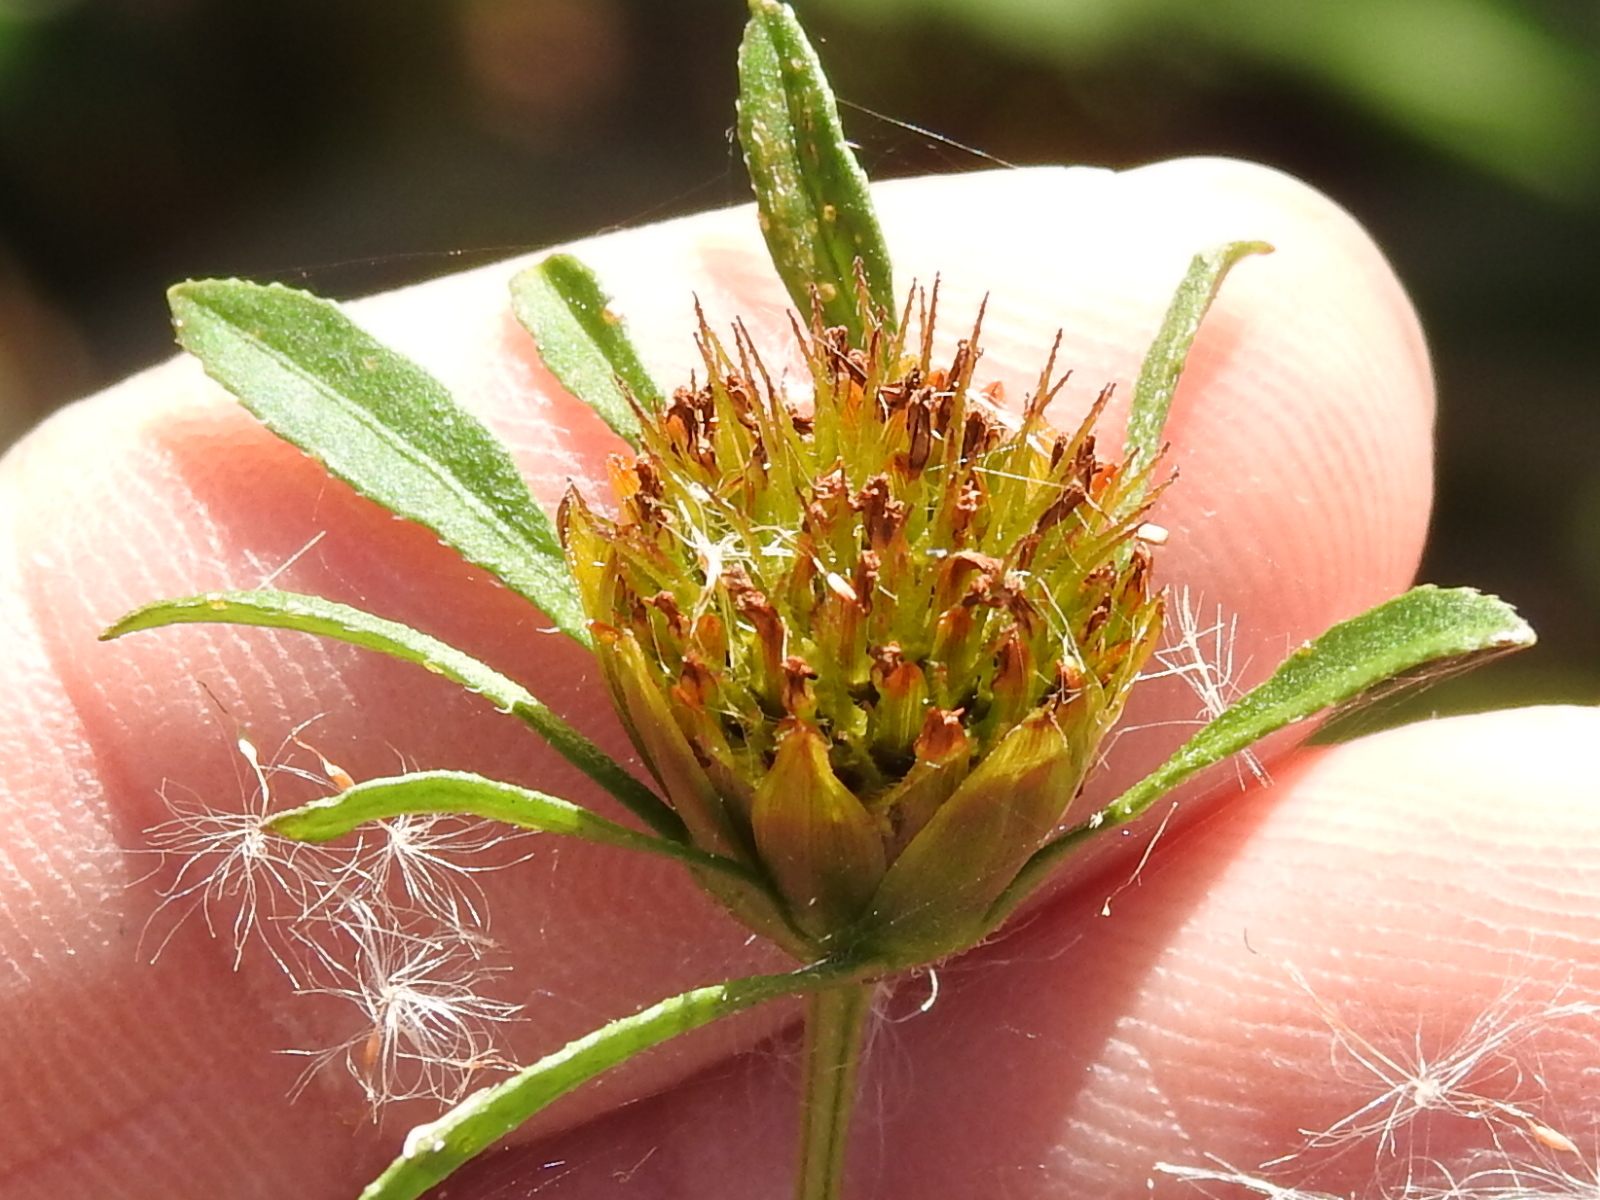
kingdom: Plantae
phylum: Tracheophyta
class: Magnoliopsida
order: Asterales
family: Asteraceae
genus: Bidens
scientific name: Bidens frondosa
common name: Beggarticks
